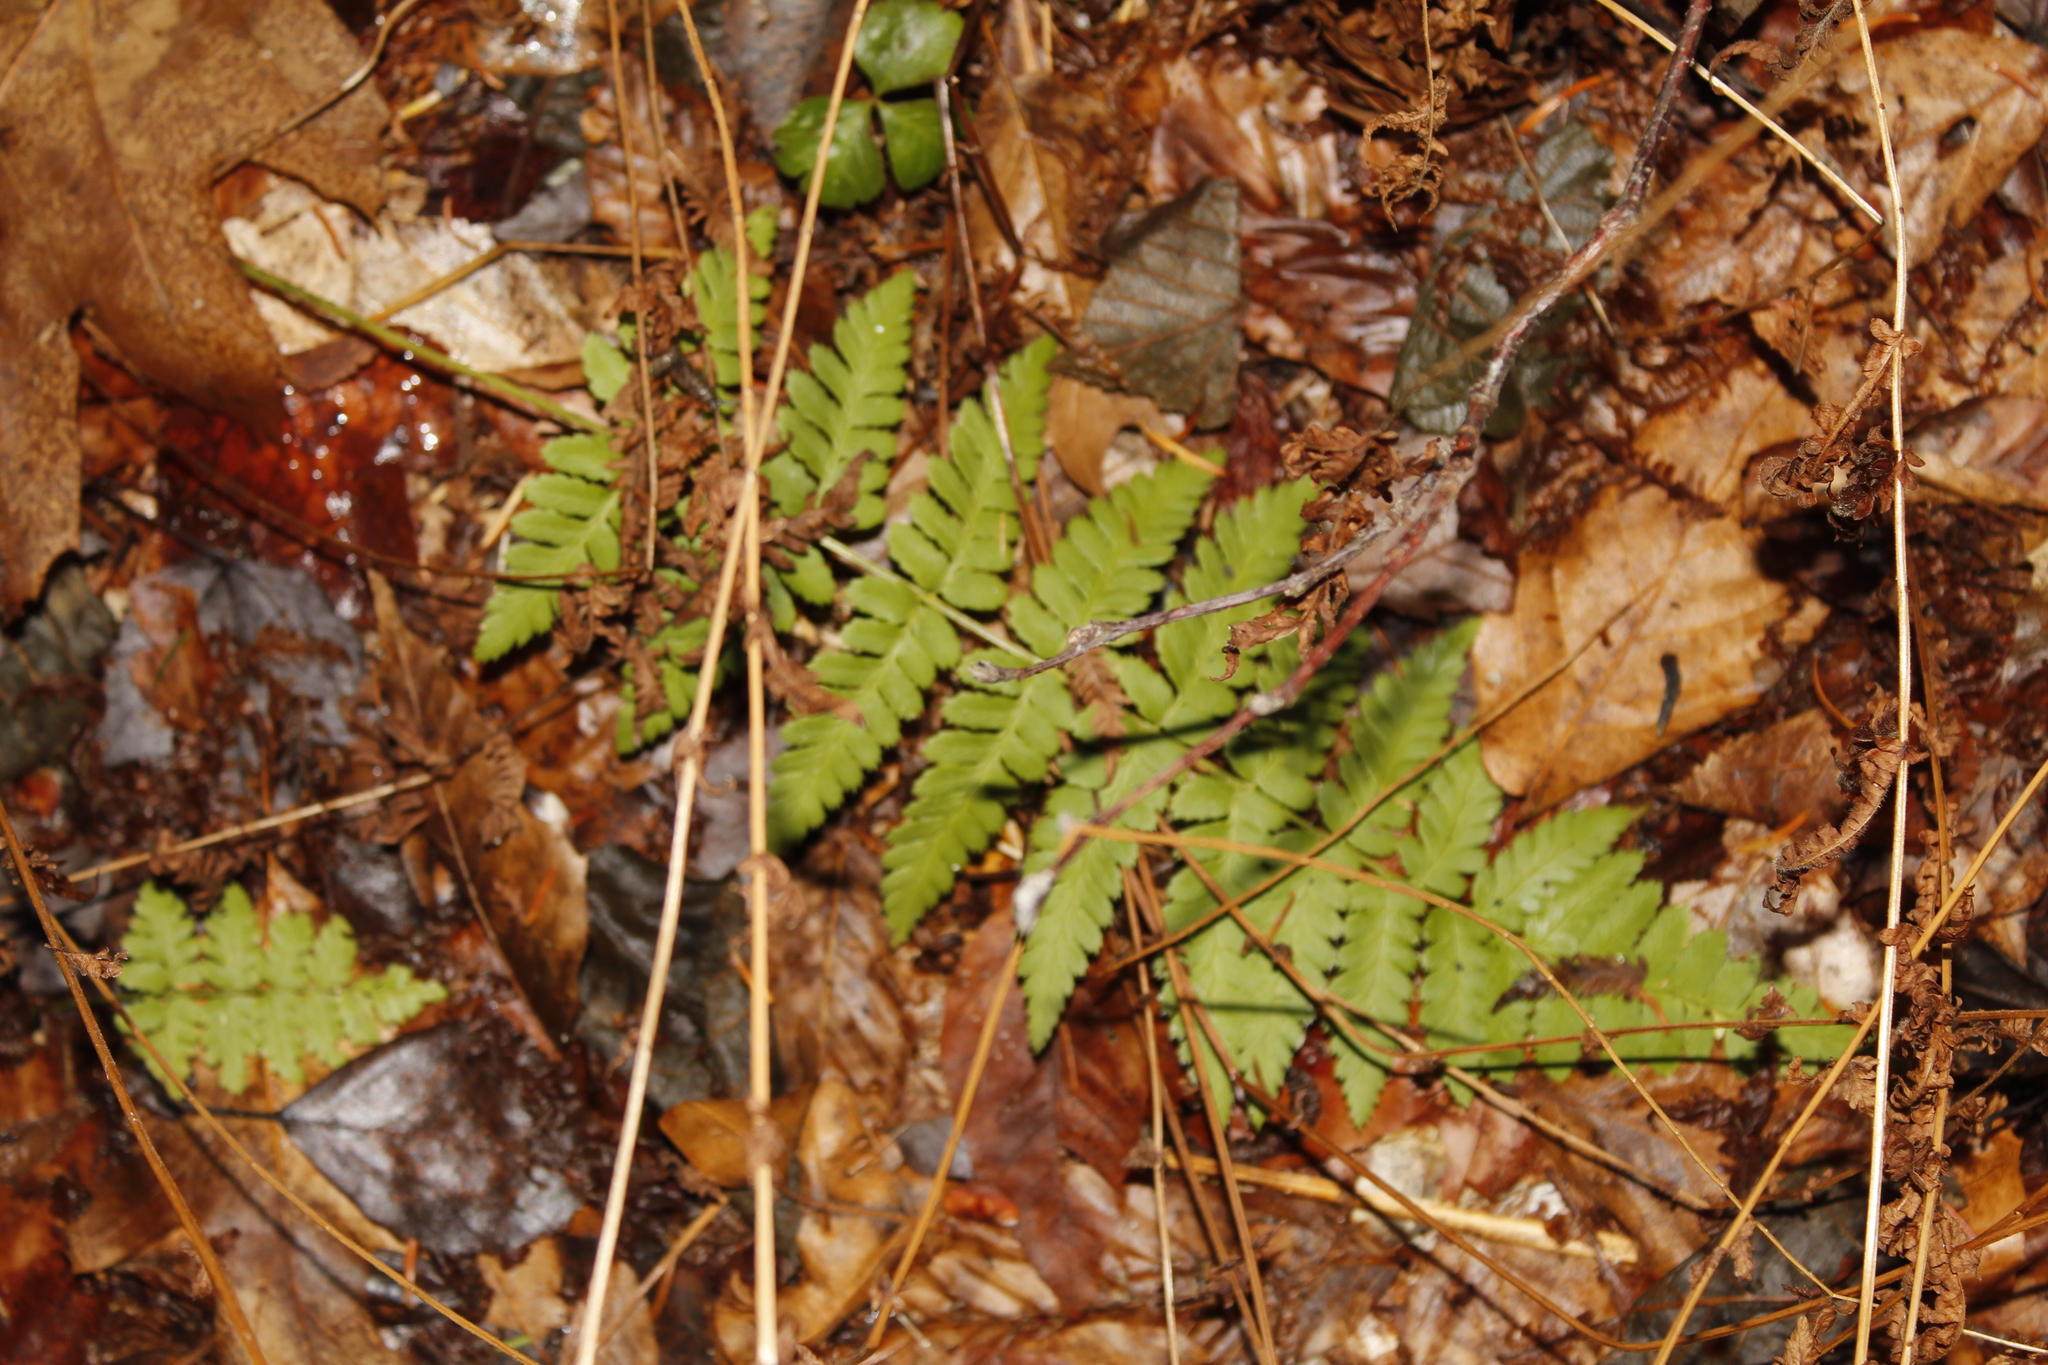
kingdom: Plantae
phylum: Tracheophyta
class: Polypodiopsida
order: Polypodiales
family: Dryopteridaceae
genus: Dryopteris
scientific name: Dryopteris marginalis
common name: Marginal wood fern
